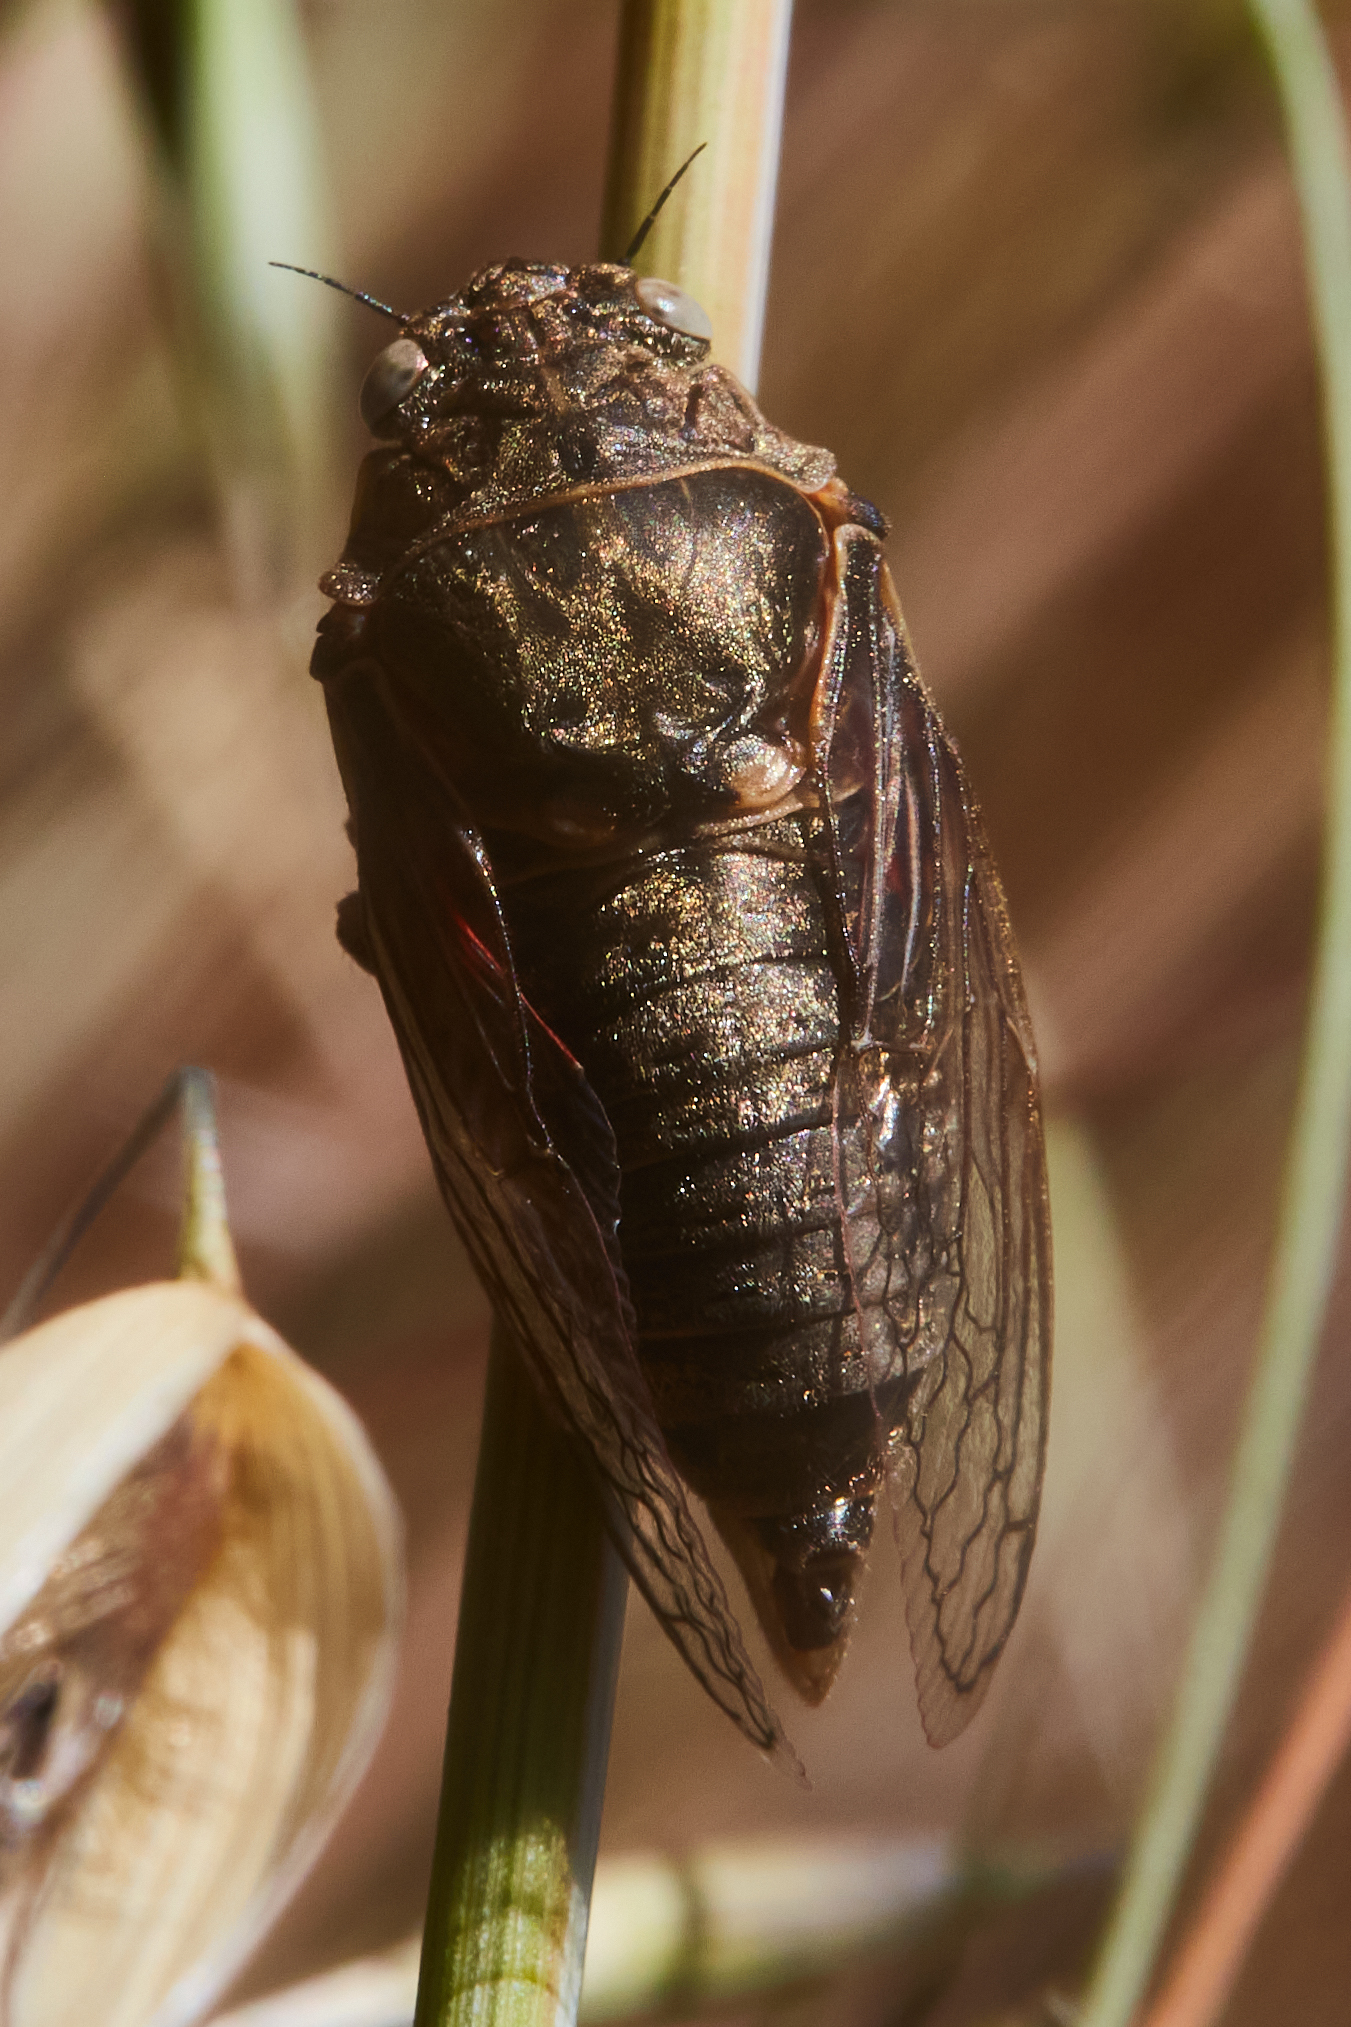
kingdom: Animalia
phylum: Arthropoda
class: Insecta
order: Hemiptera
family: Cicadidae
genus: Tibicinoides
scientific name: Tibicinoides minuta
